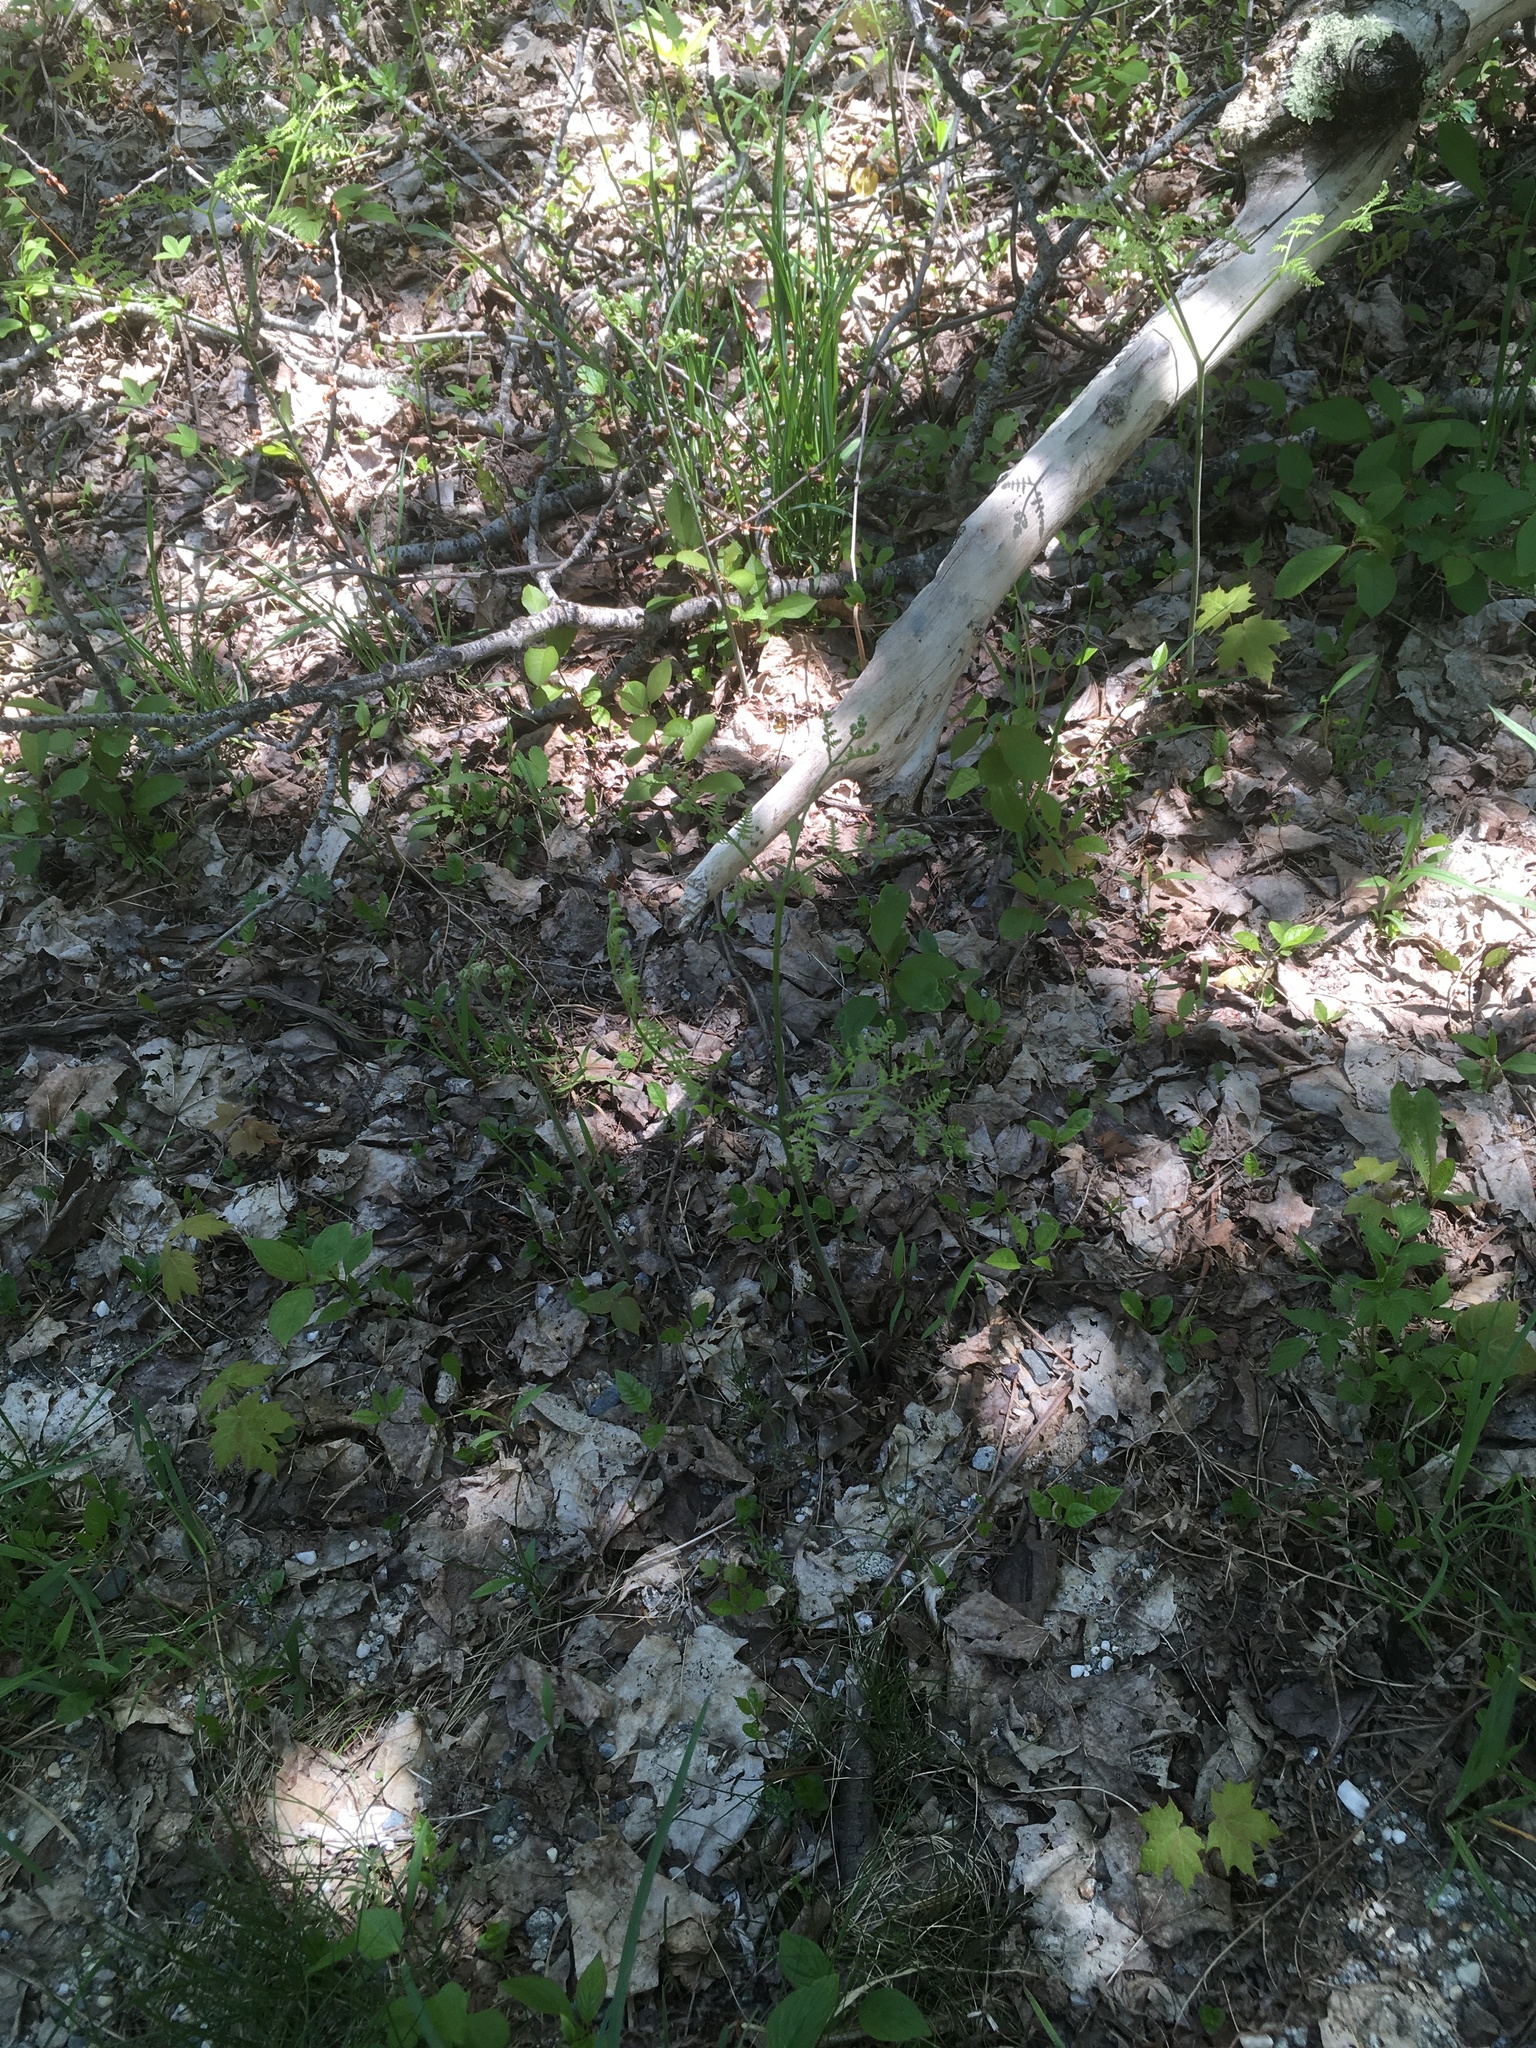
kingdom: Plantae
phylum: Tracheophyta
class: Polypodiopsida
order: Polypodiales
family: Dennstaedtiaceae
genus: Pteridium
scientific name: Pteridium aquilinum
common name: Bracken
